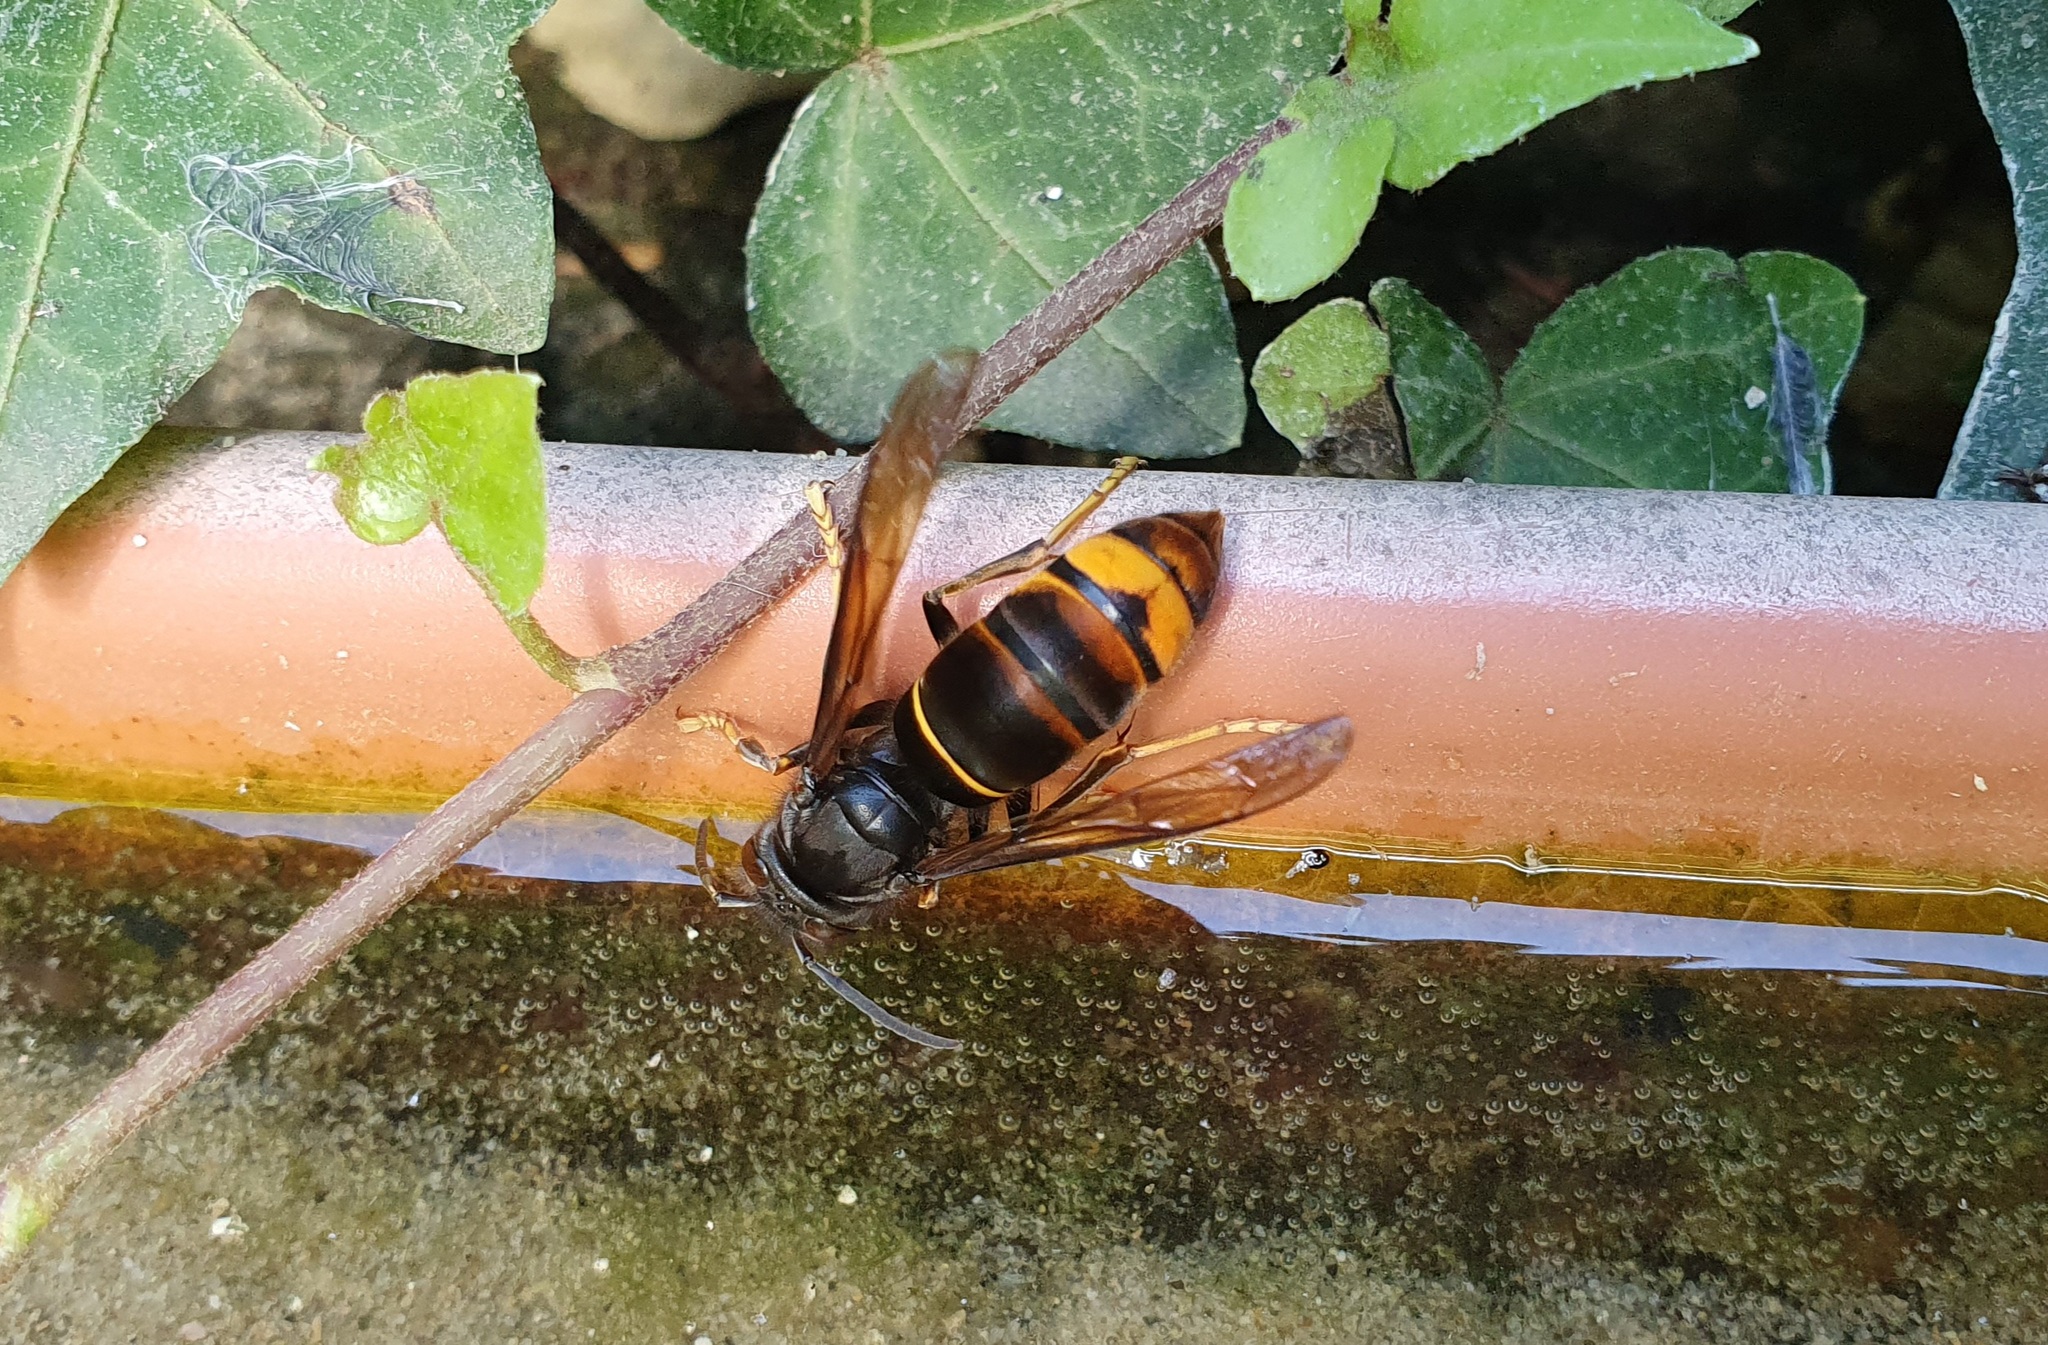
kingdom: Animalia
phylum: Arthropoda
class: Insecta
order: Hymenoptera
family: Vespidae
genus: Vespa
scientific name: Vespa velutina
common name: Asian hornet
